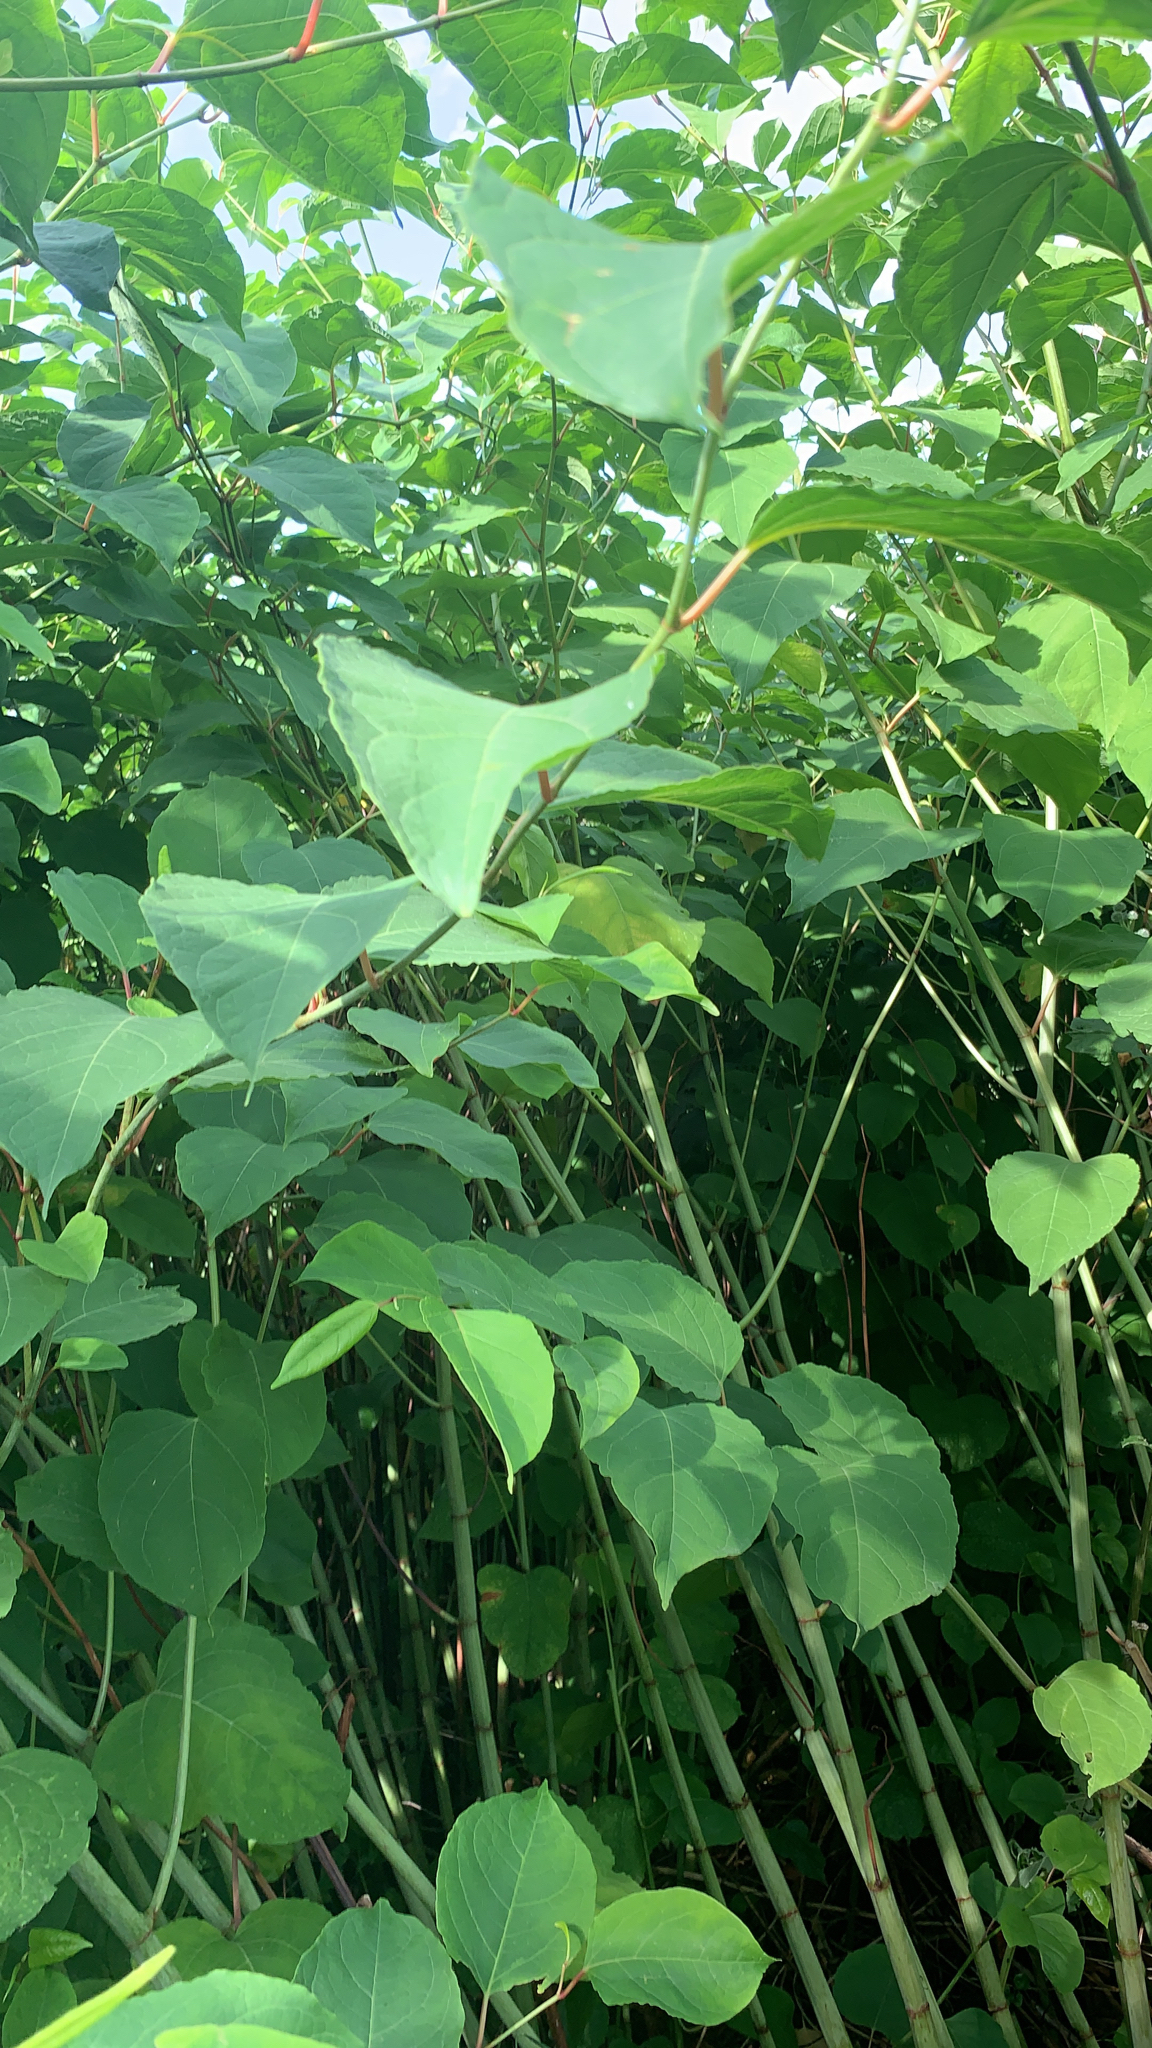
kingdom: Plantae
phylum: Tracheophyta
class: Magnoliopsida
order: Caryophyllales
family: Polygonaceae
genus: Reynoutria
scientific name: Reynoutria bohemica
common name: Bohemian knotweed
